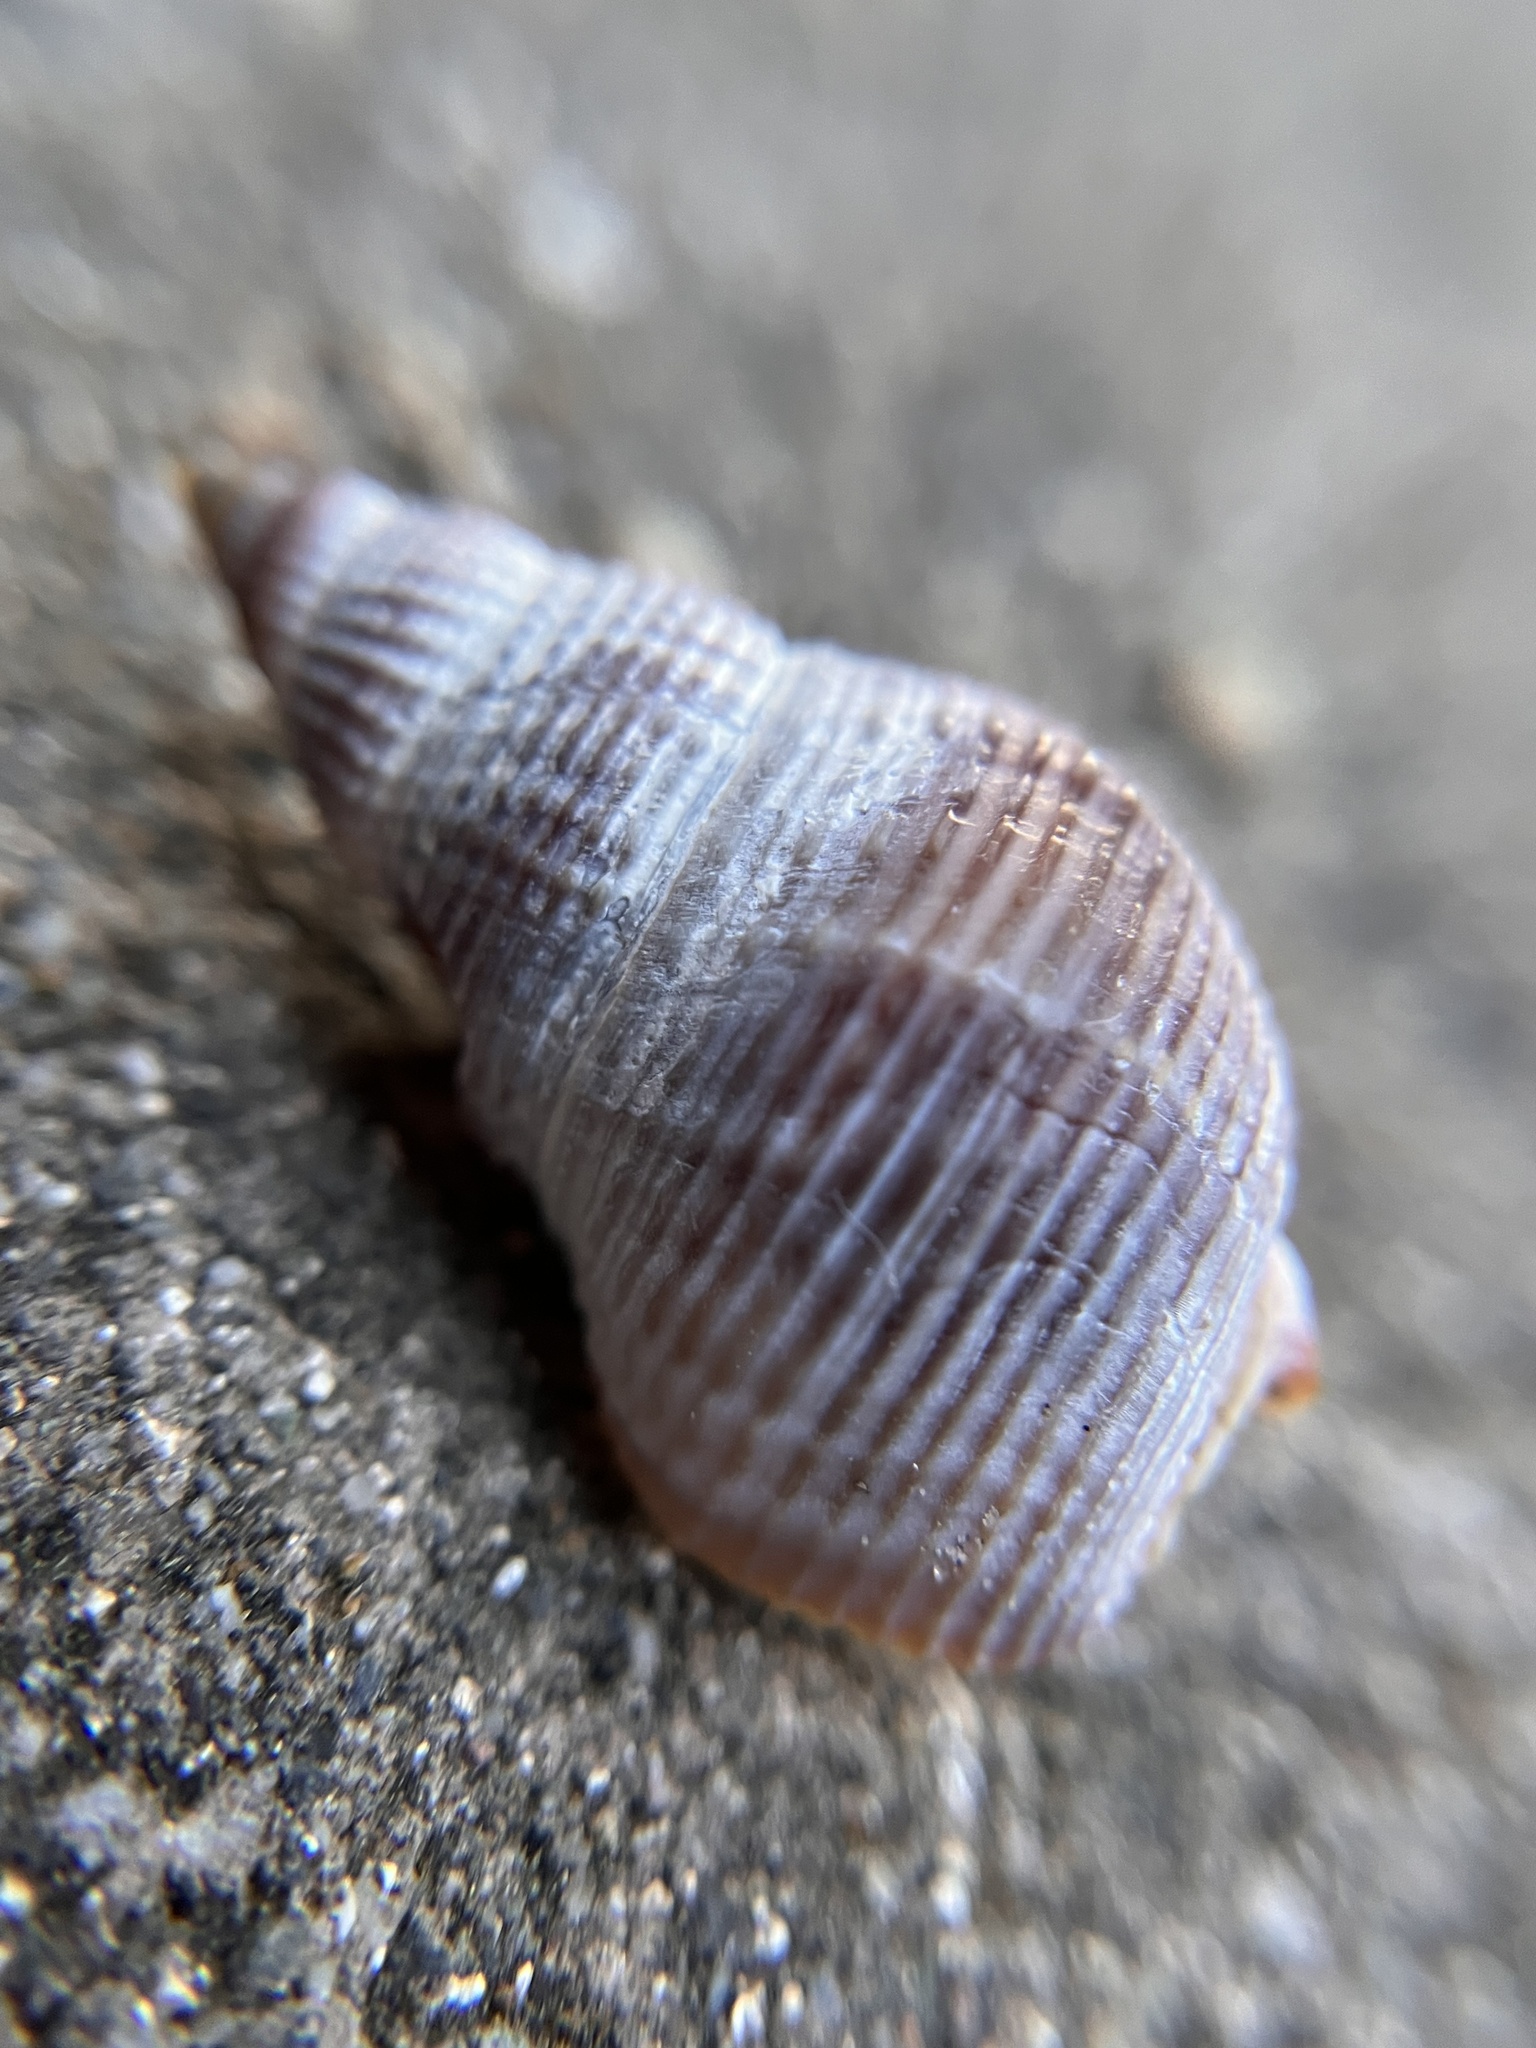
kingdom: Animalia
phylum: Mollusca
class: Gastropoda
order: Neogastropoda
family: Nassariidae
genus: Caesia
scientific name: Caesia fossata
